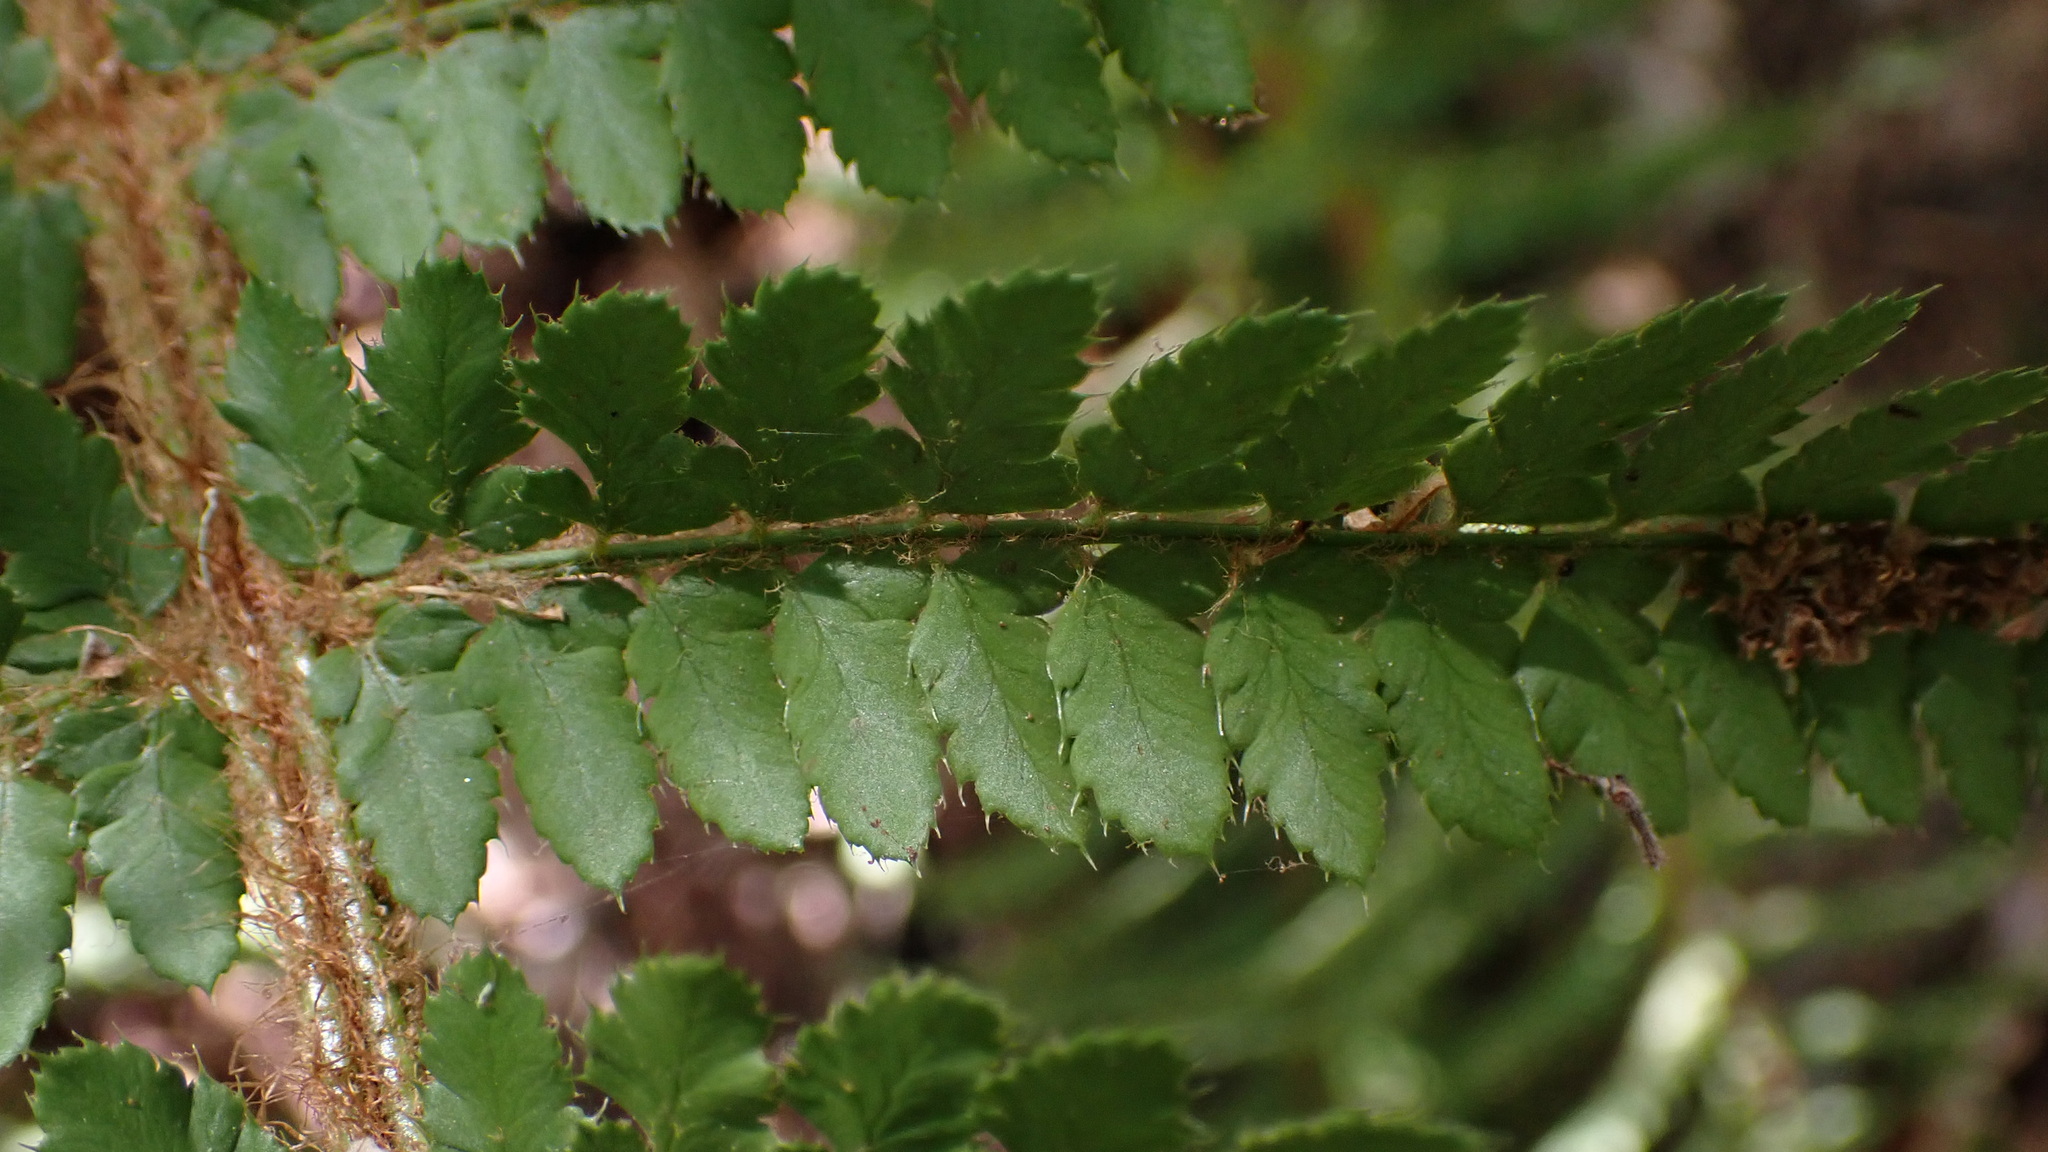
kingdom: Plantae
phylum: Tracheophyta
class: Polypodiopsida
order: Polypodiales
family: Dryopteridaceae
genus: Polystichum
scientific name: Polystichum setiferum
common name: Soft shield-fern
